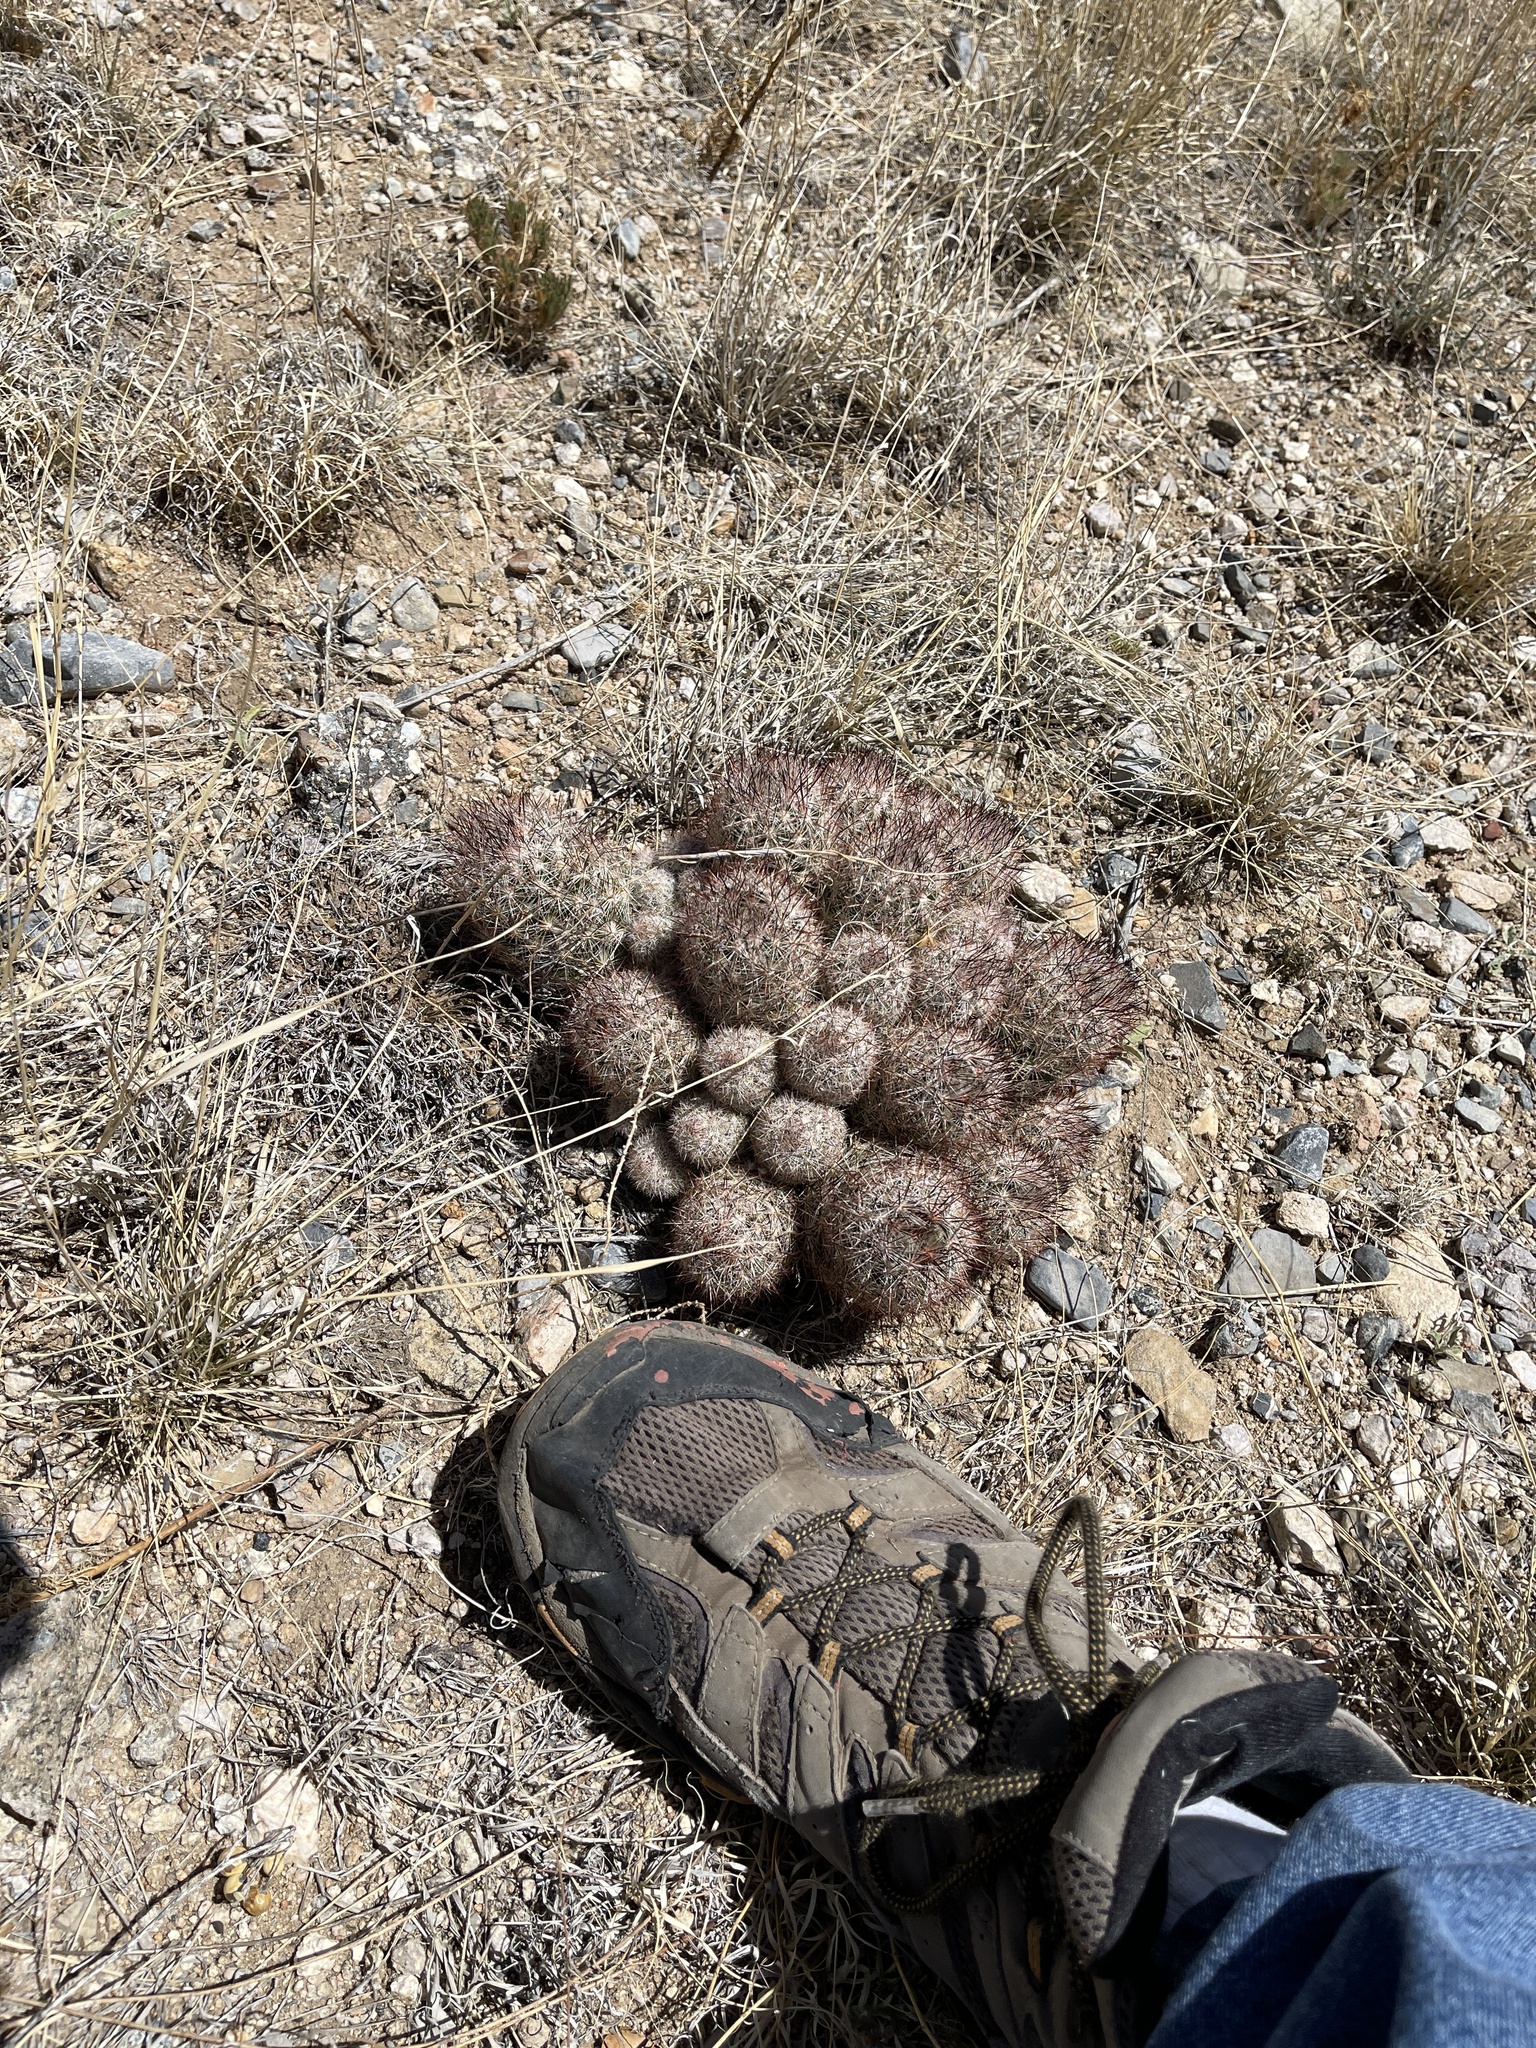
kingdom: Plantae
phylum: Tracheophyta
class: Magnoliopsida
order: Caryophyllales
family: Cactaceae
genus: Pelecyphora
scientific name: Pelecyphora vivipara
